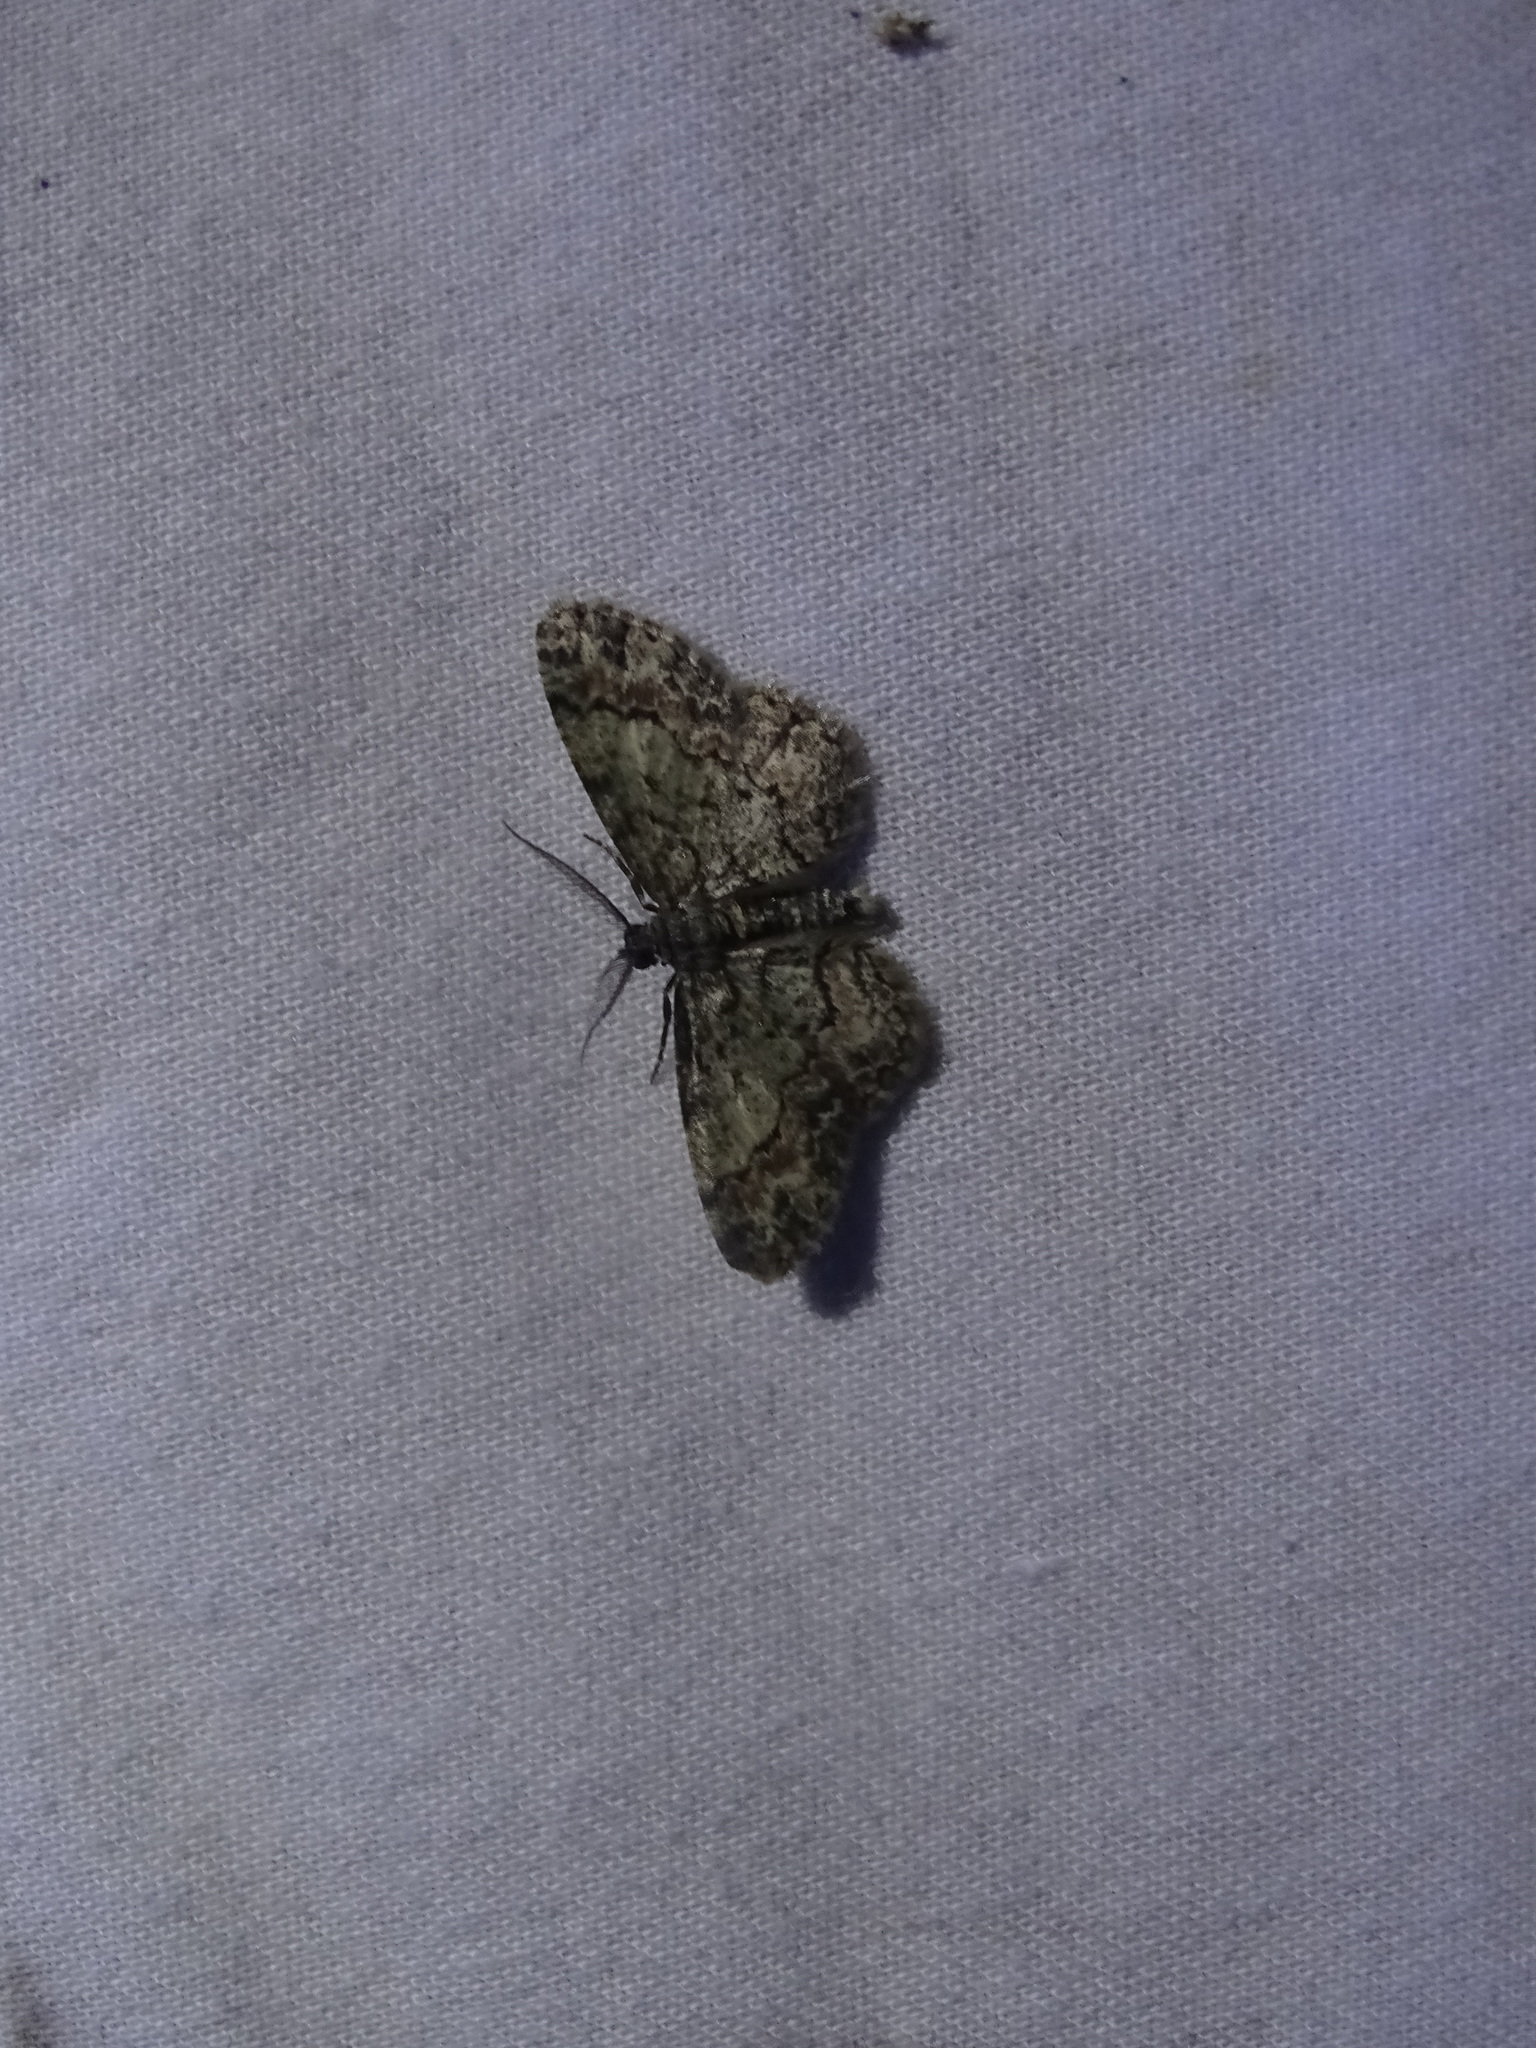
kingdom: Animalia
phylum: Arthropoda
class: Insecta
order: Lepidoptera
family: Geometridae
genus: Glenoides
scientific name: Glenoides texanaria
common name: Texas gray
